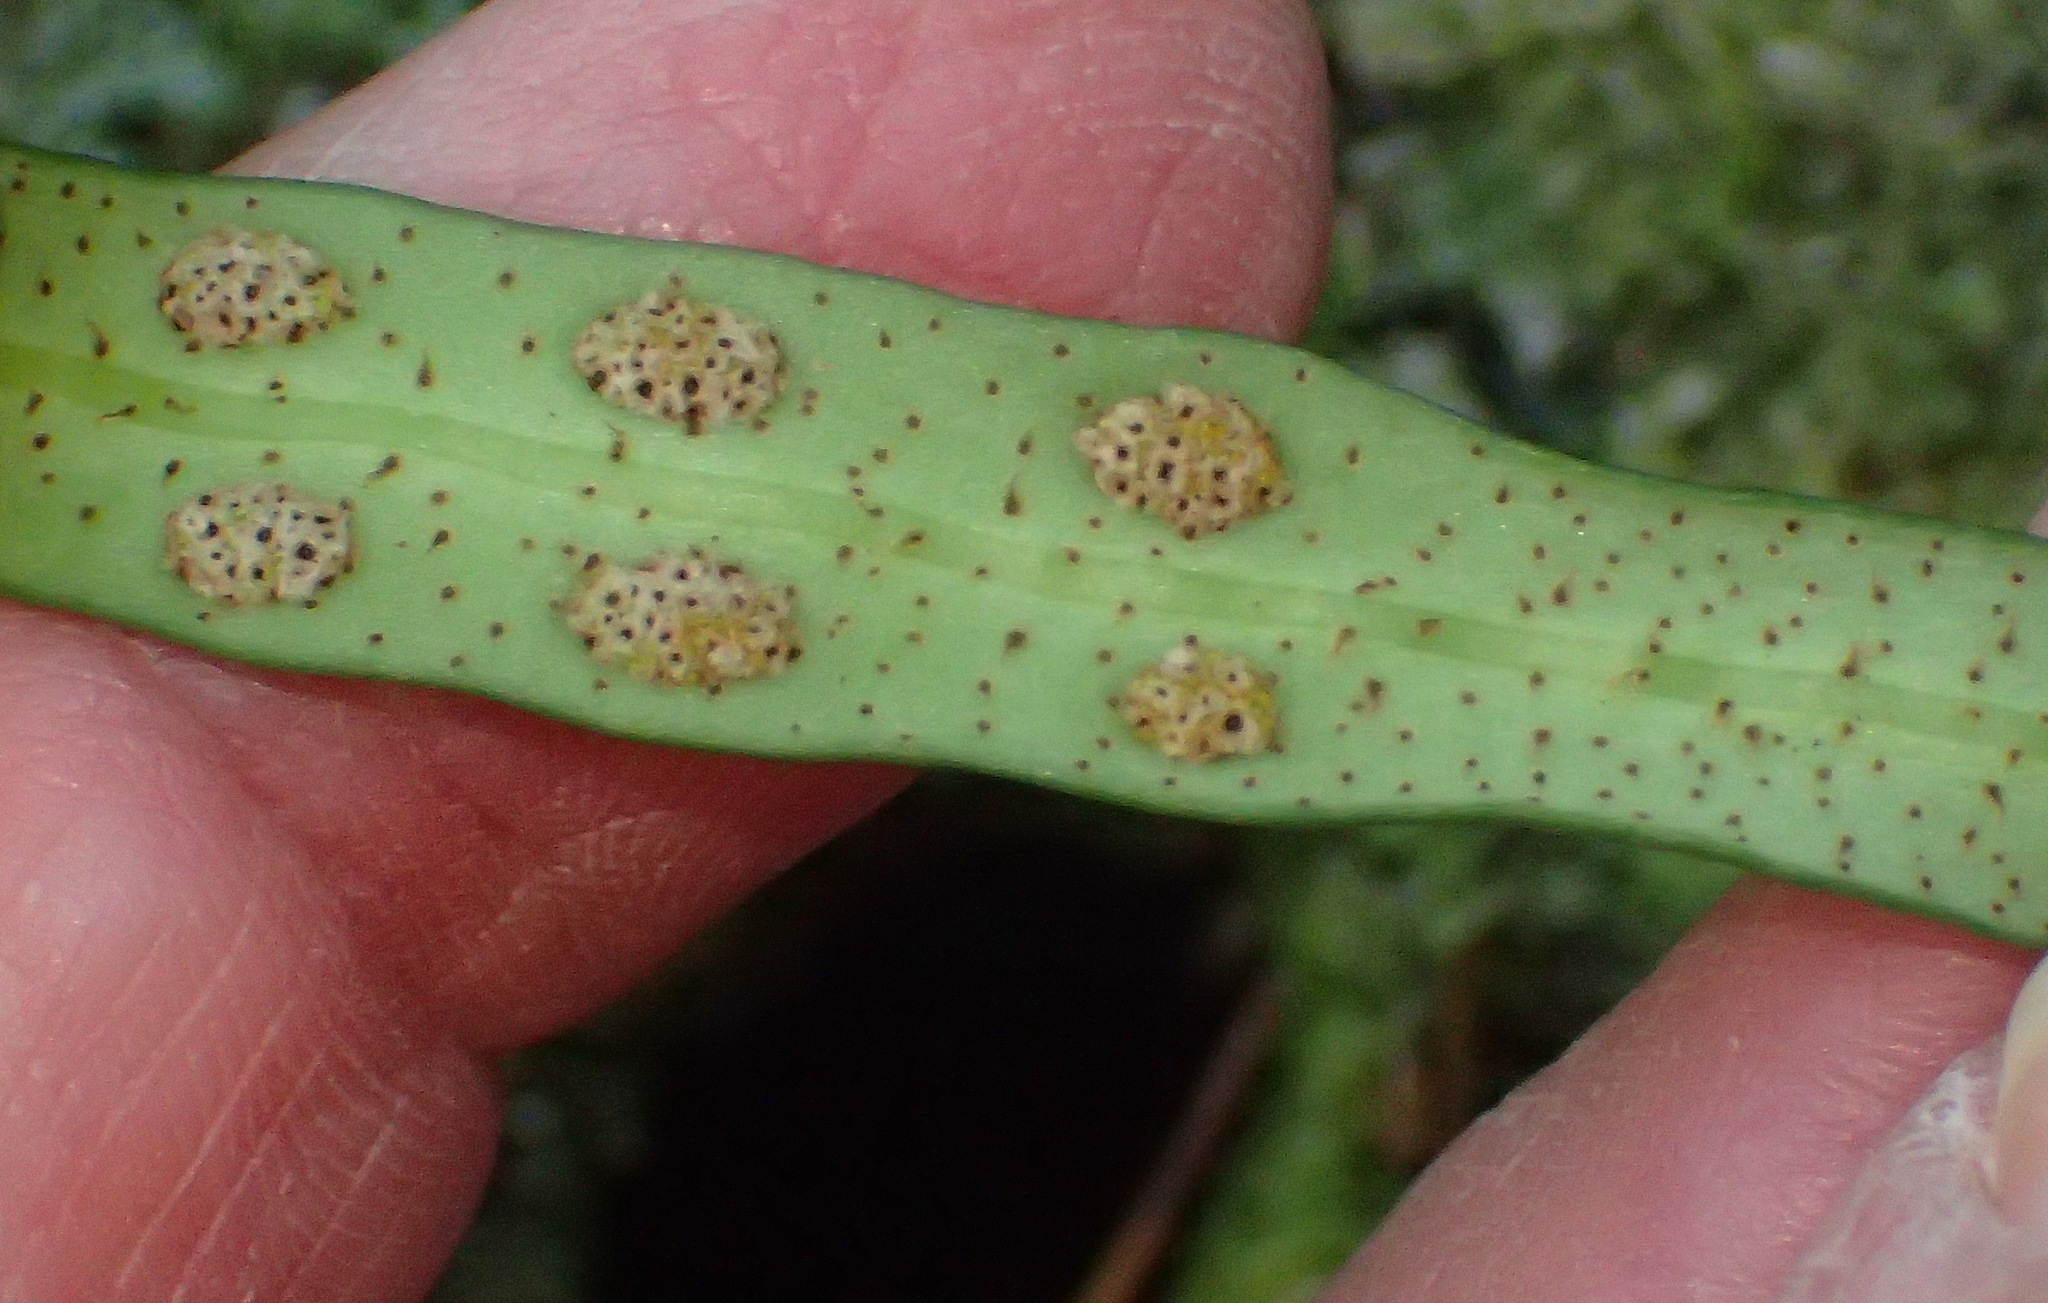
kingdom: Plantae
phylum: Tracheophyta
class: Polypodiopsida
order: Polypodiales
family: Polypodiaceae
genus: Pleopeltis
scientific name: Pleopeltis macrocarpa
